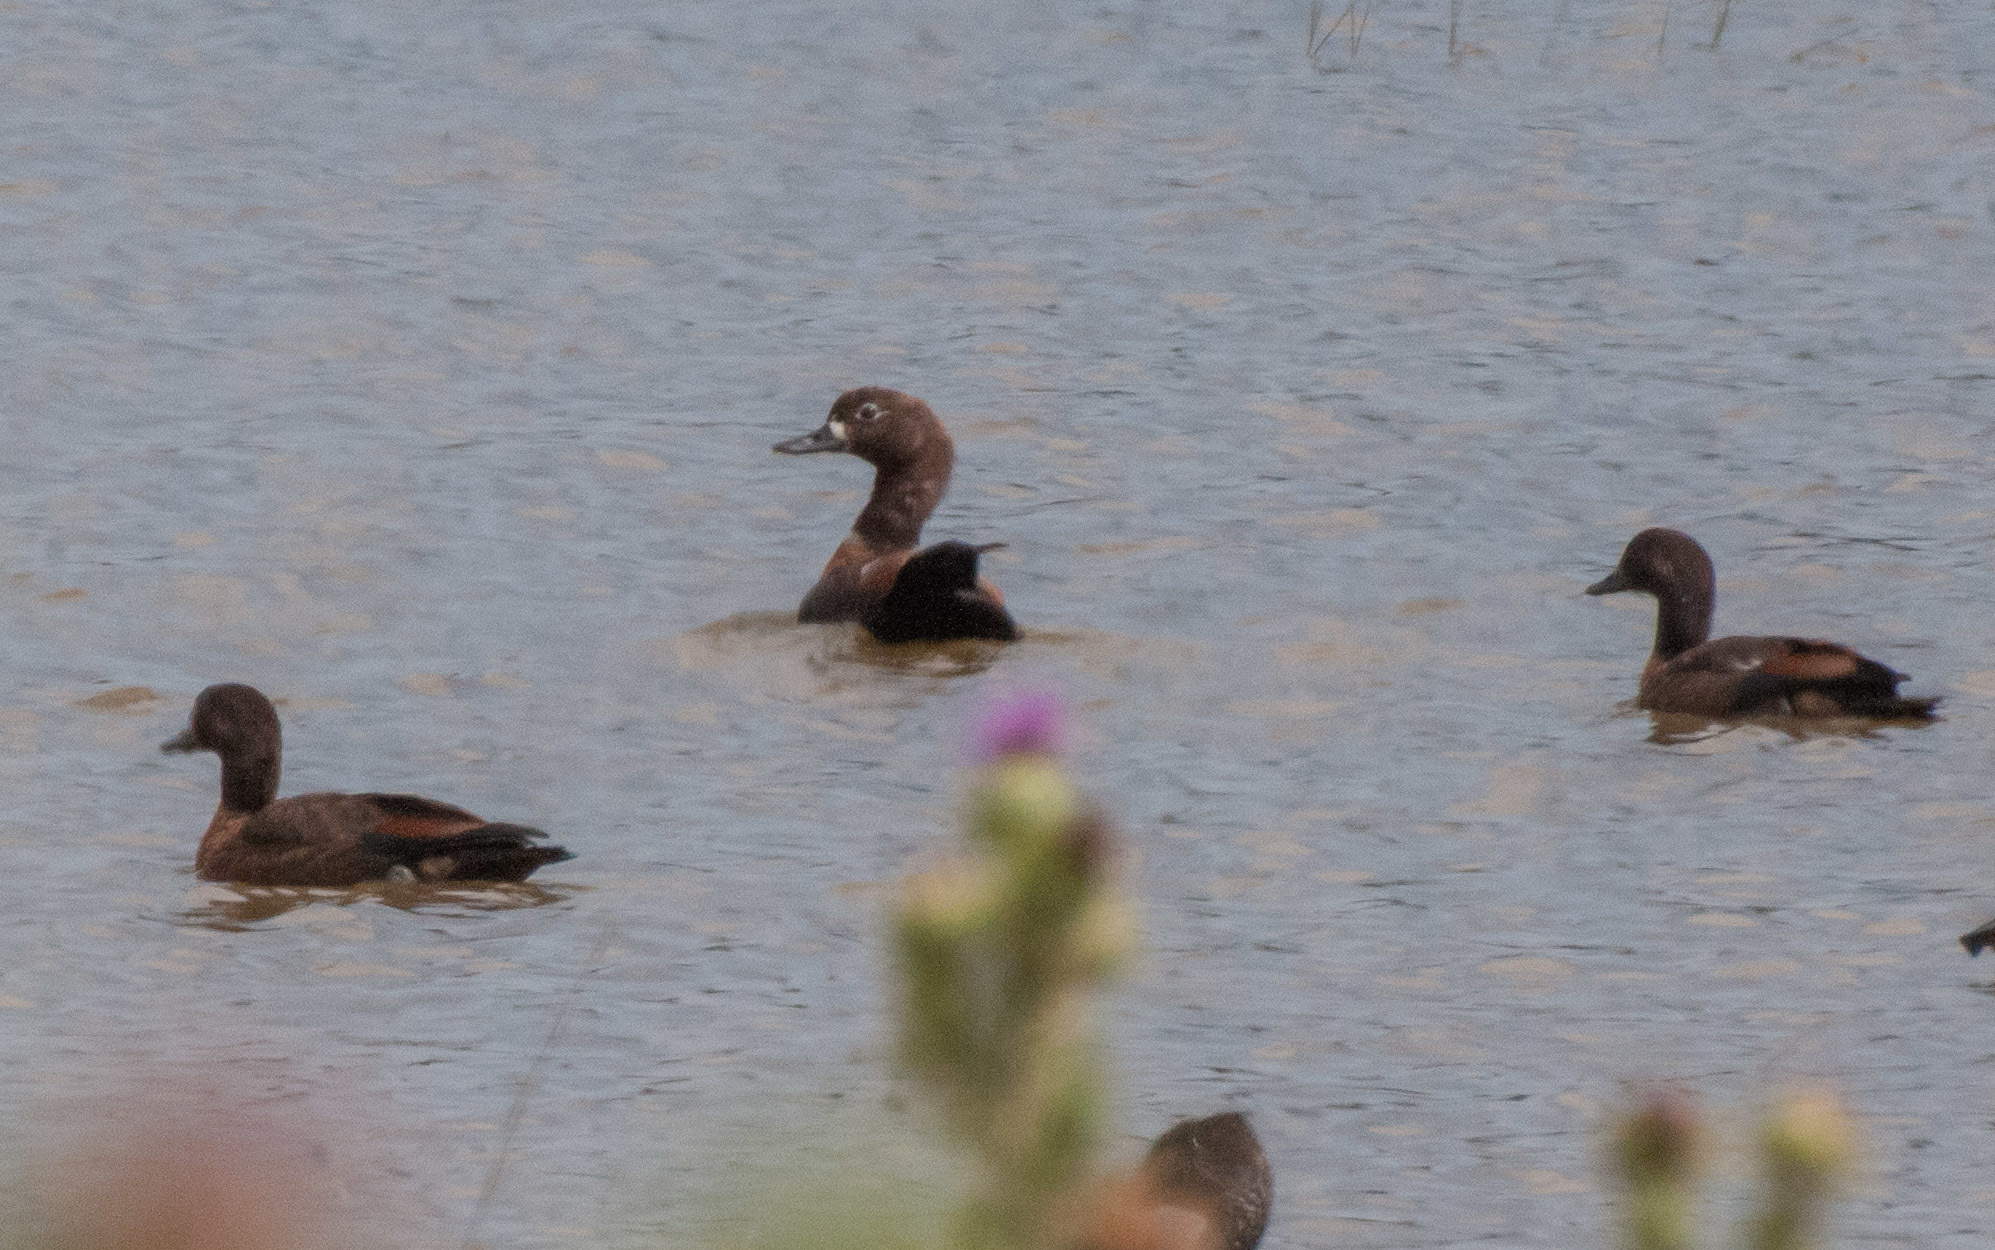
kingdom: Animalia
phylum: Chordata
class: Aves
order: Anseriformes
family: Anatidae
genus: Tadorna
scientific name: Tadorna tadornoides
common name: Australian shelduck
